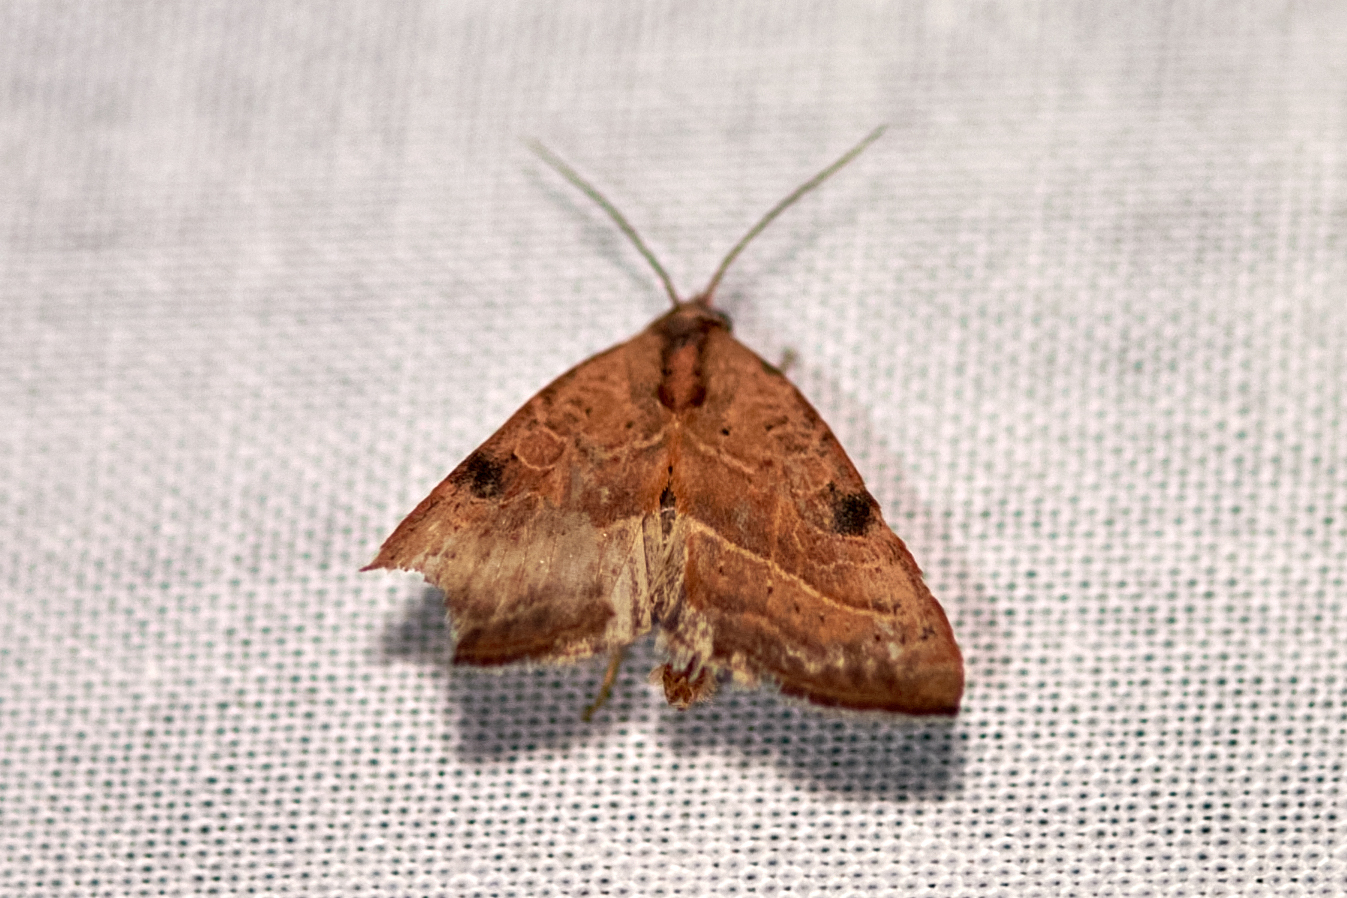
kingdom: Animalia
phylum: Arthropoda
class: Insecta
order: Lepidoptera
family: Noctuidae
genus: Galgula
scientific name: Galgula partita
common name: Wedgeling
